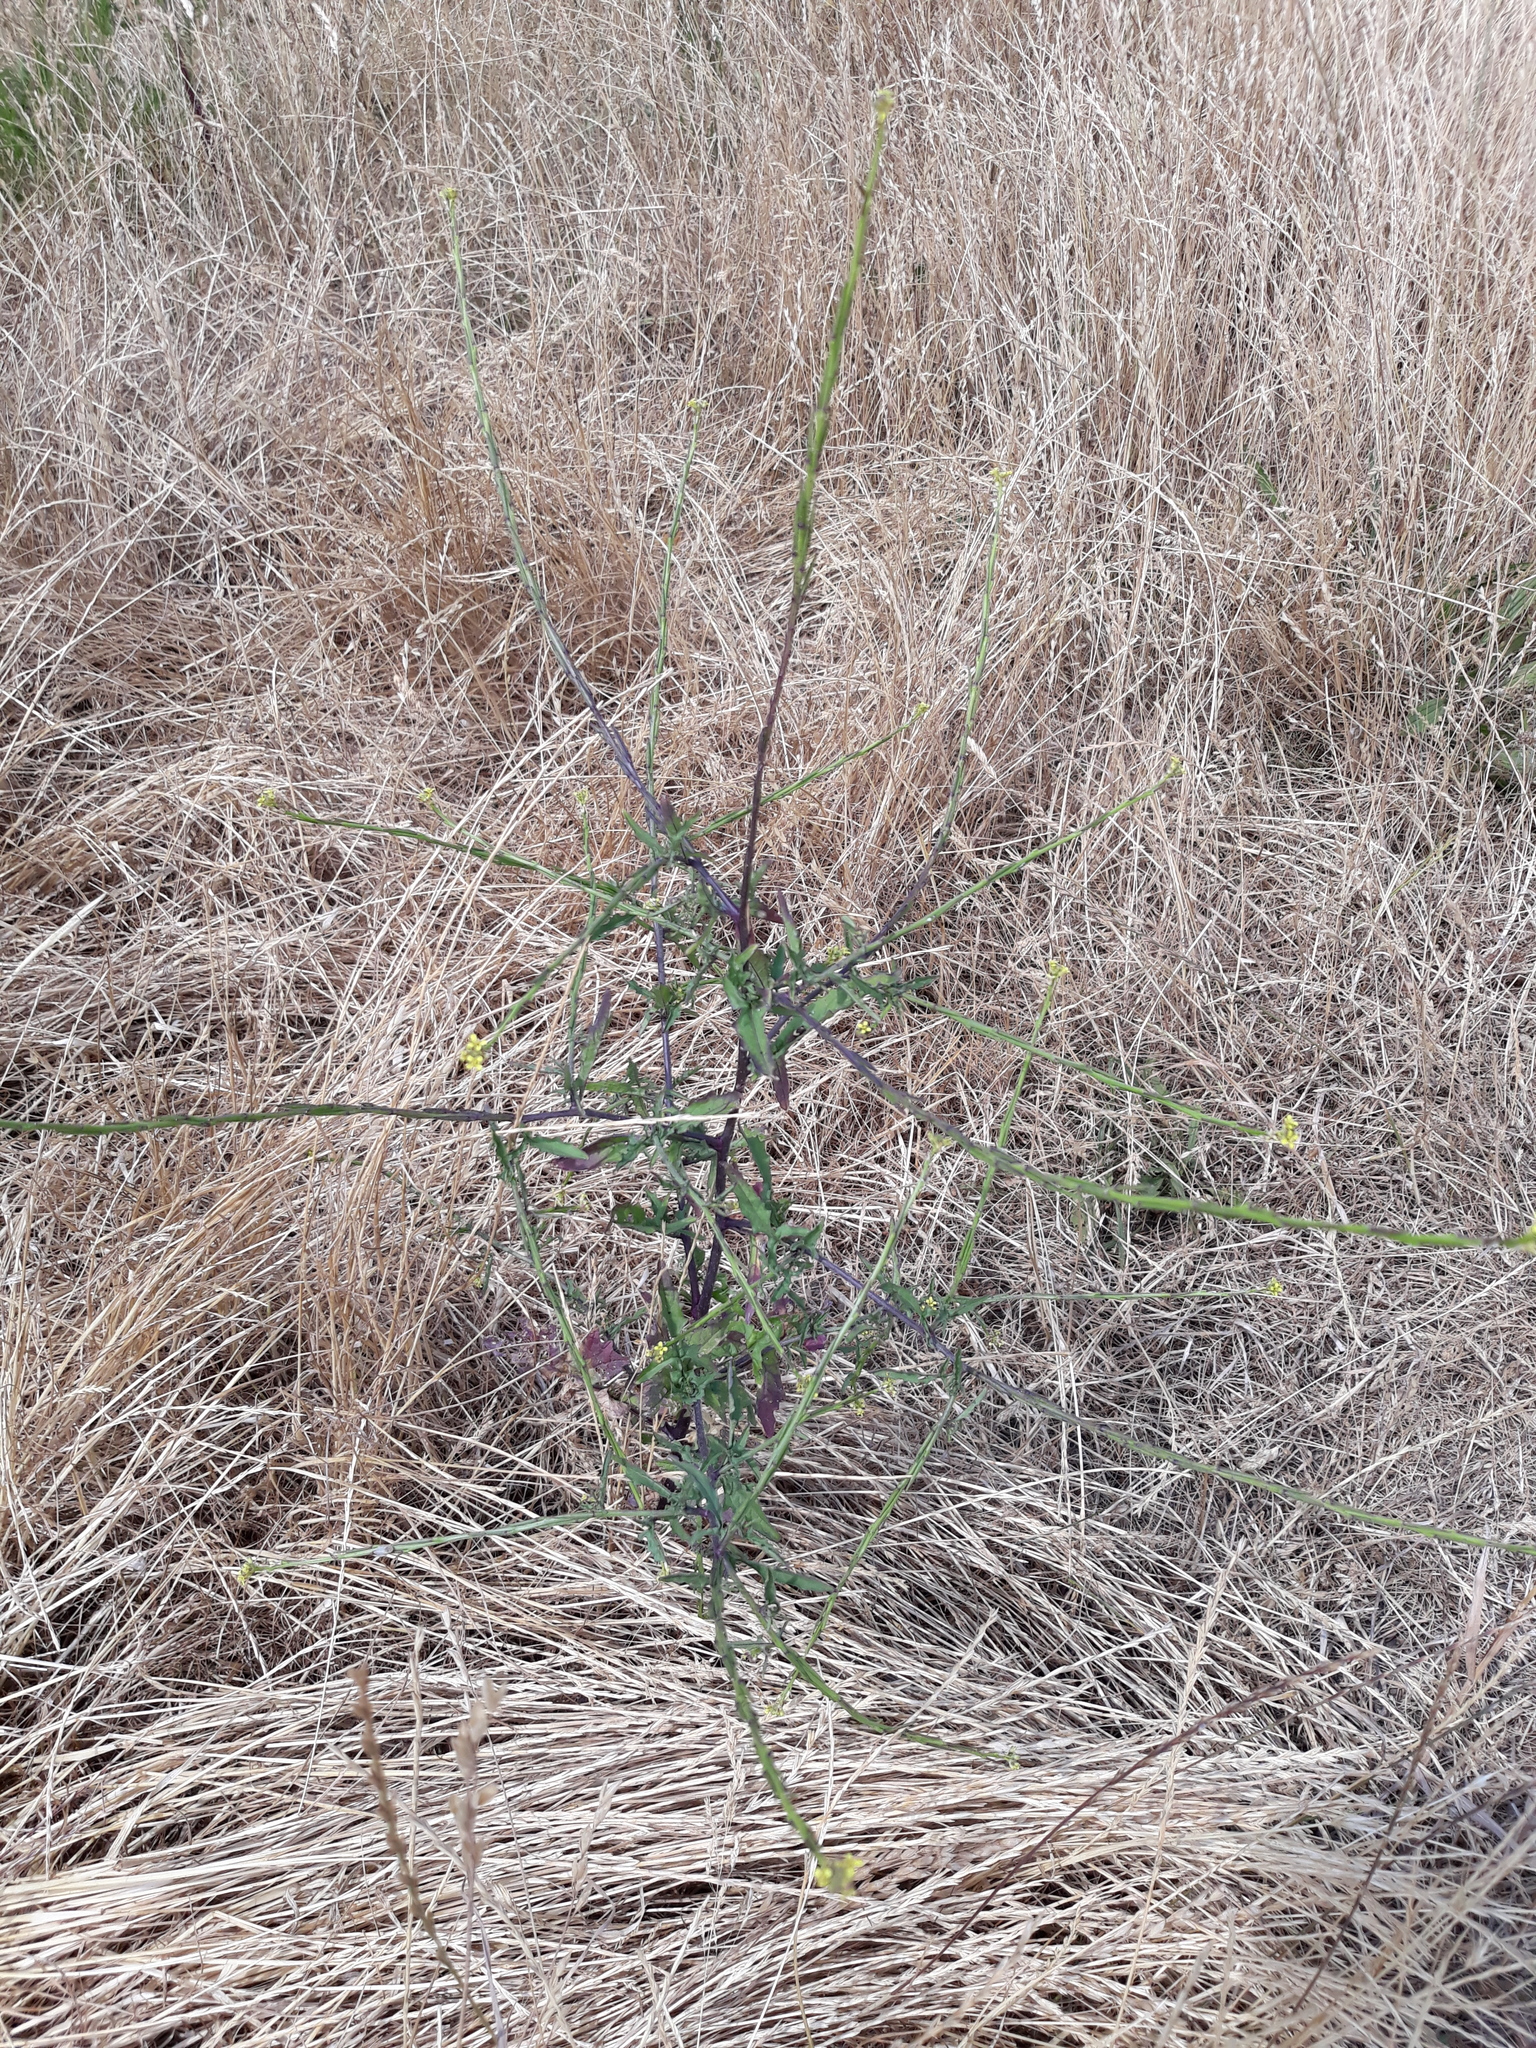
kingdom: Plantae
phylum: Tracheophyta
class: Magnoliopsida
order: Brassicales
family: Brassicaceae
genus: Sisymbrium
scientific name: Sisymbrium officinale
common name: Hedge mustard
